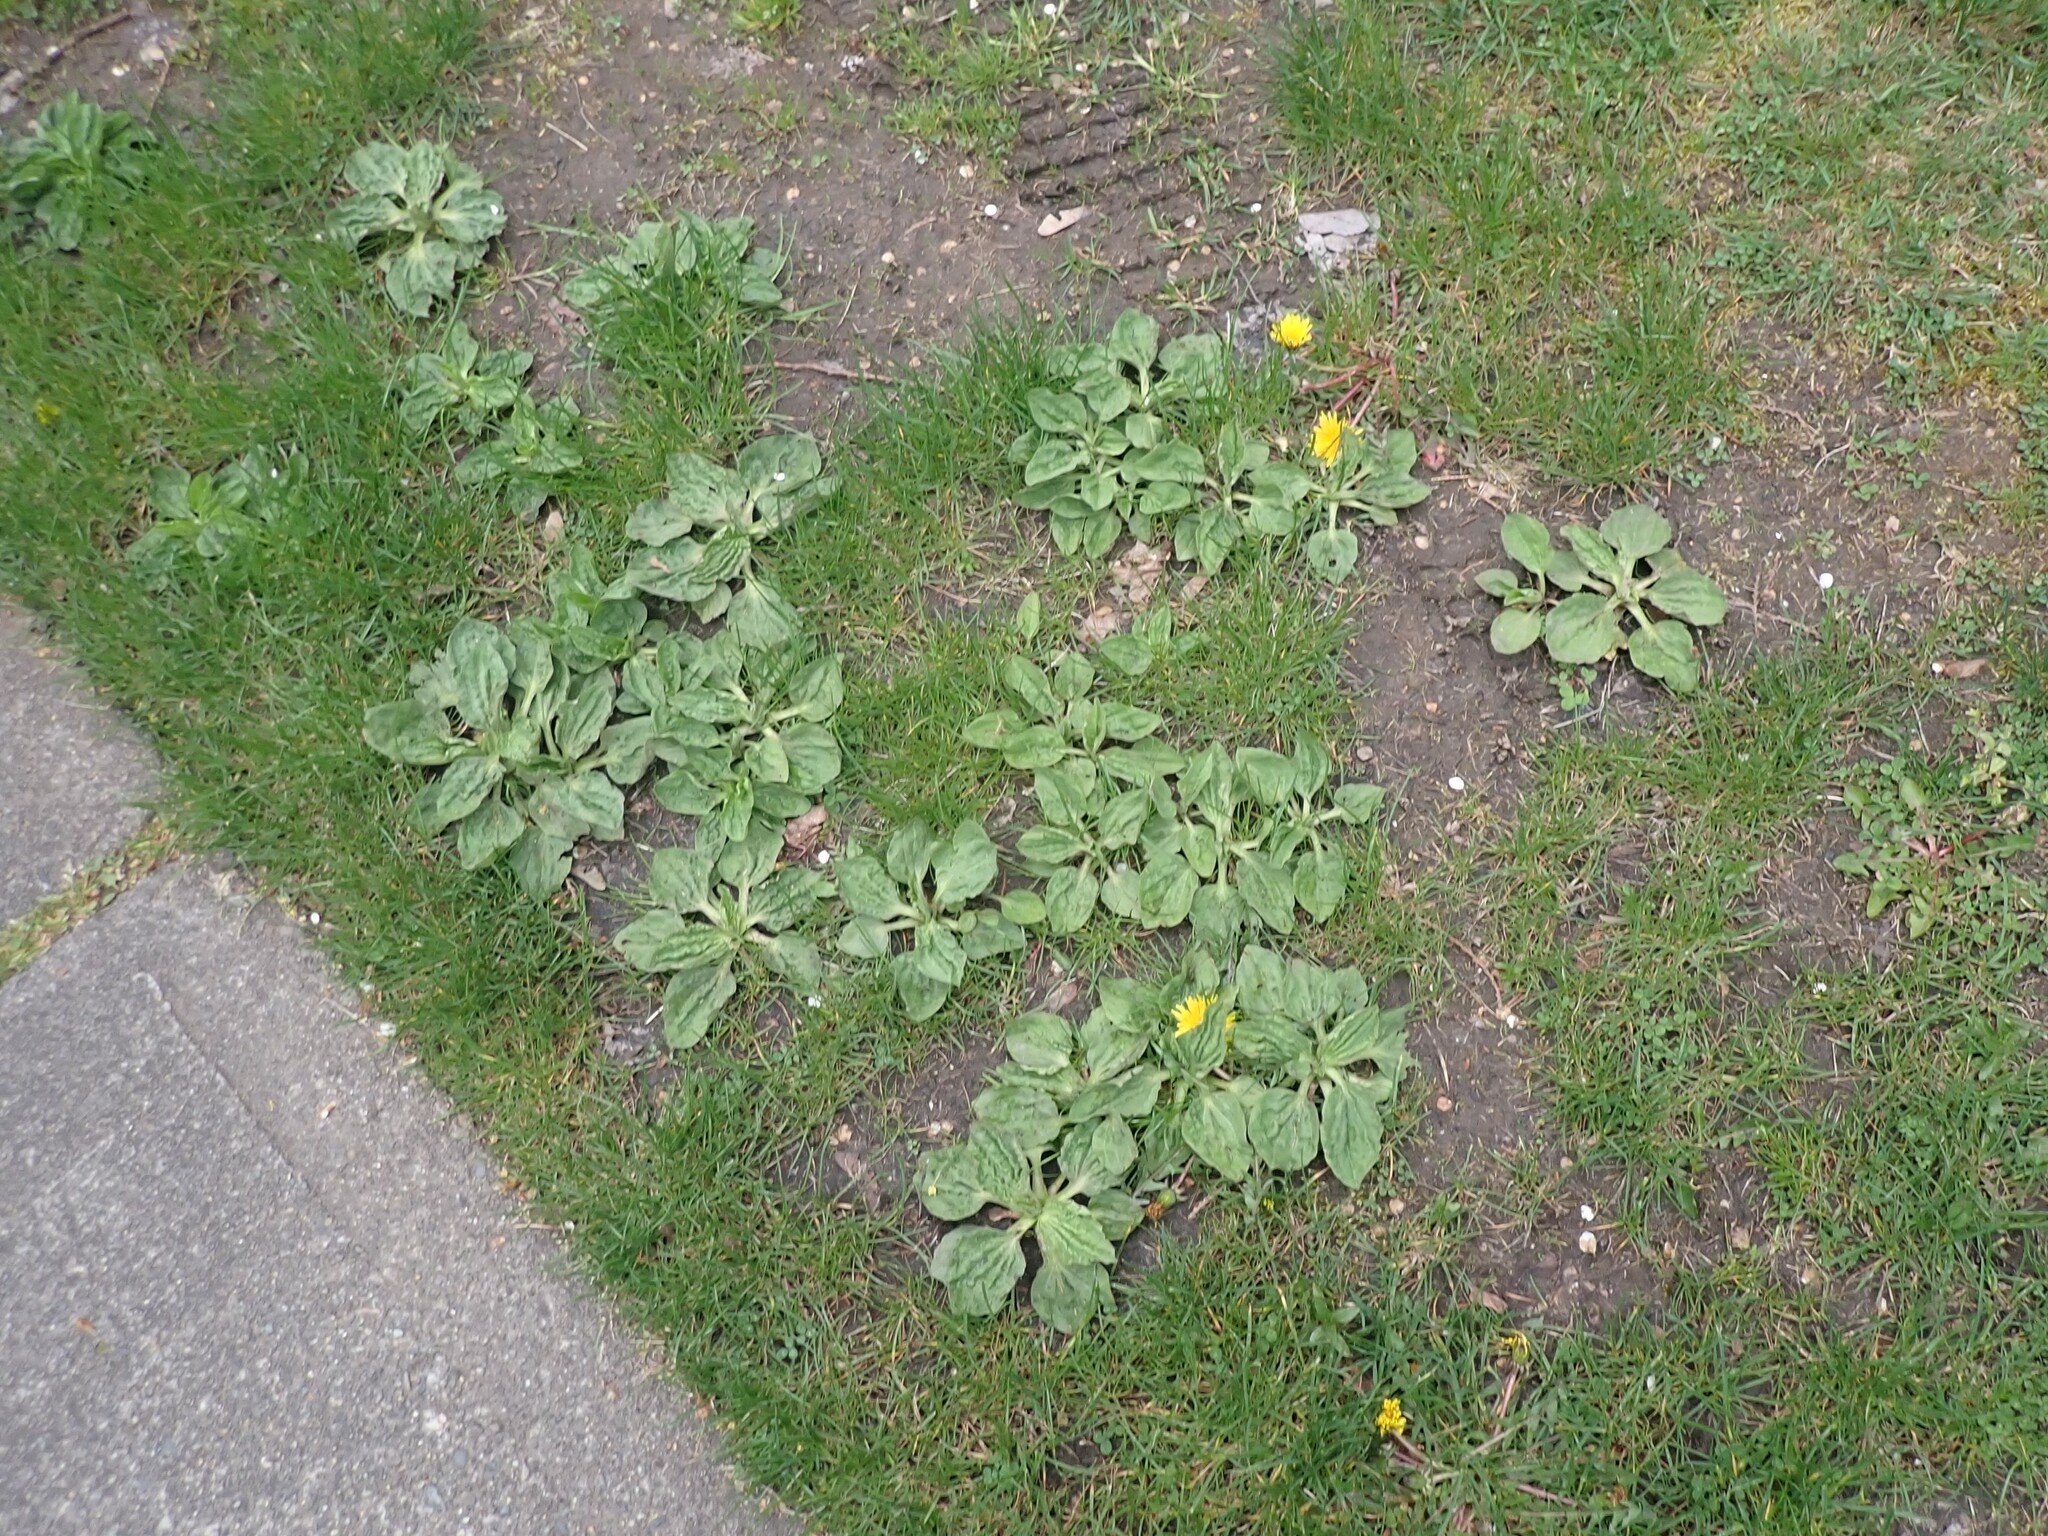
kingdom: Plantae
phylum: Tracheophyta
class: Magnoliopsida
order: Lamiales
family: Plantaginaceae
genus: Plantago
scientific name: Plantago major
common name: Common plantain
